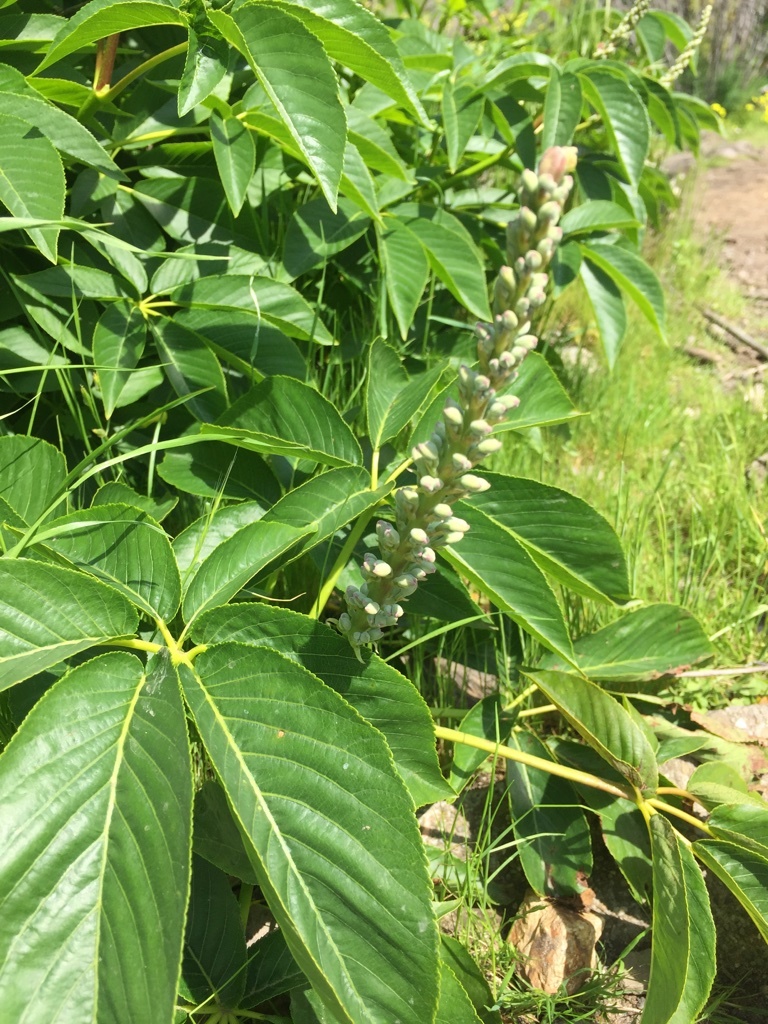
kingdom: Plantae
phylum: Tracheophyta
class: Magnoliopsida
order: Sapindales
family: Sapindaceae
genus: Aesculus
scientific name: Aesculus californica
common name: California buckeye
